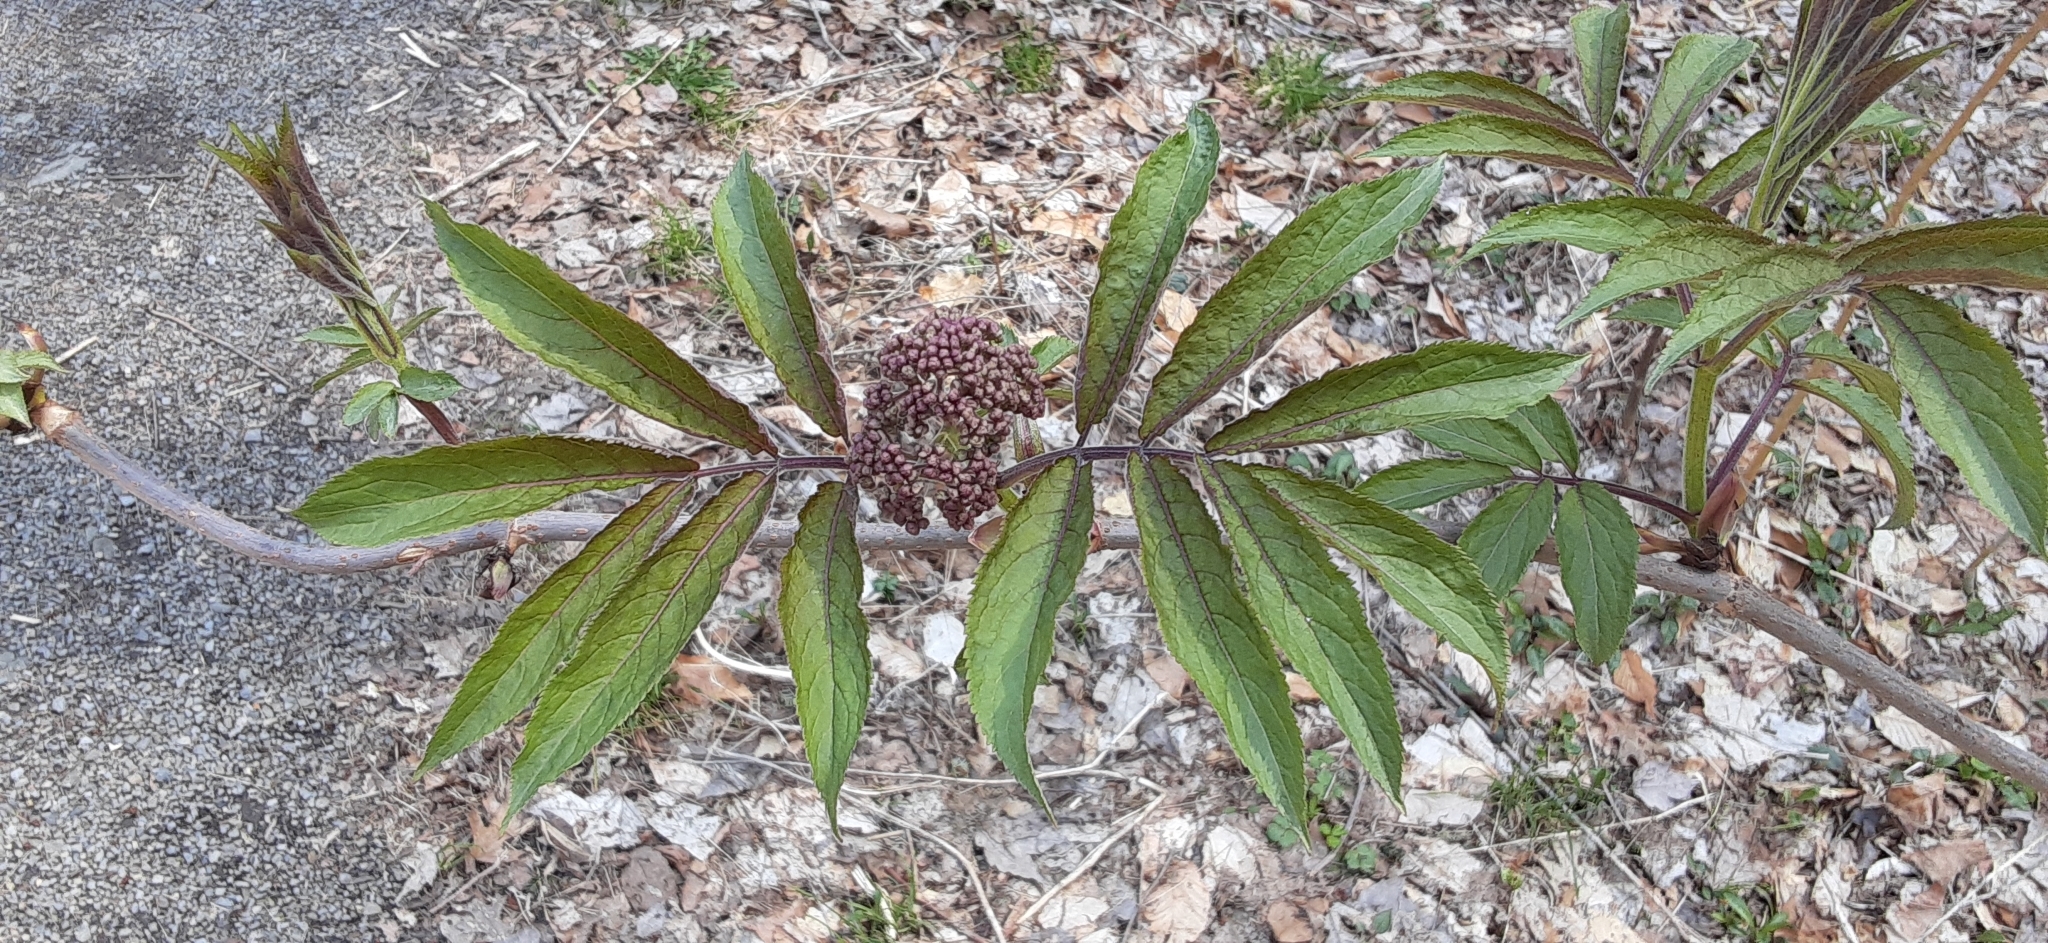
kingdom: Plantae
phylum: Tracheophyta
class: Magnoliopsida
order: Dipsacales
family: Viburnaceae
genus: Sambucus
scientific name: Sambucus racemosa
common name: Red-berried elder
